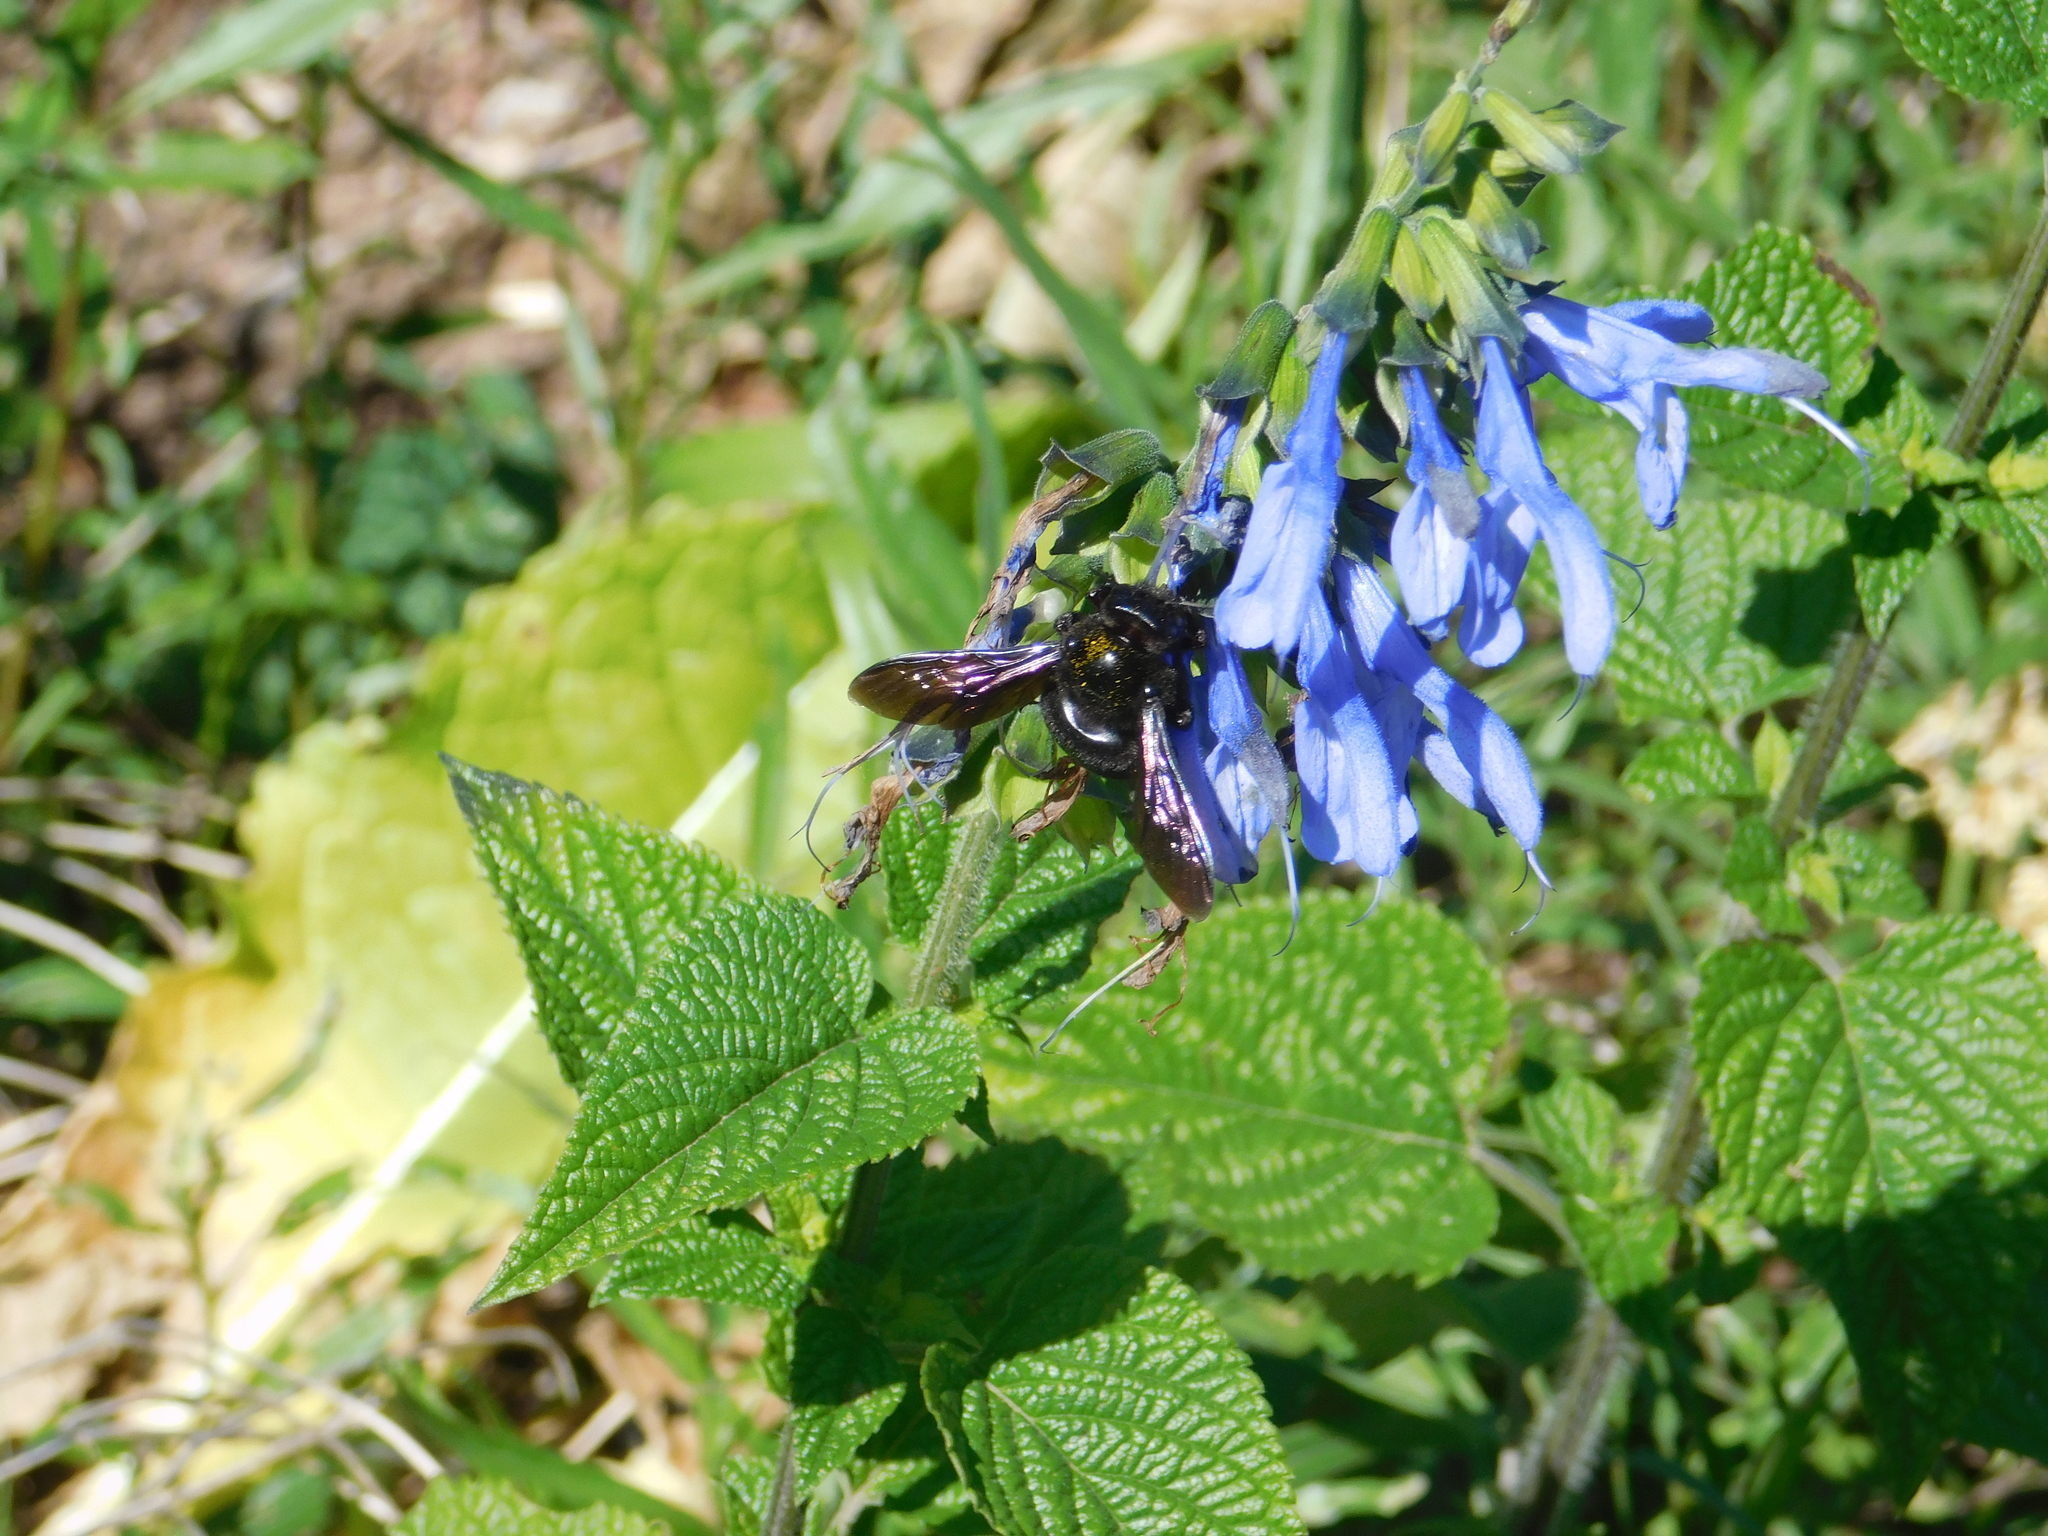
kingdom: Animalia
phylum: Arthropoda
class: Insecta
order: Hymenoptera
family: Apidae
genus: Xylocopa
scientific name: Xylocopa augusti
